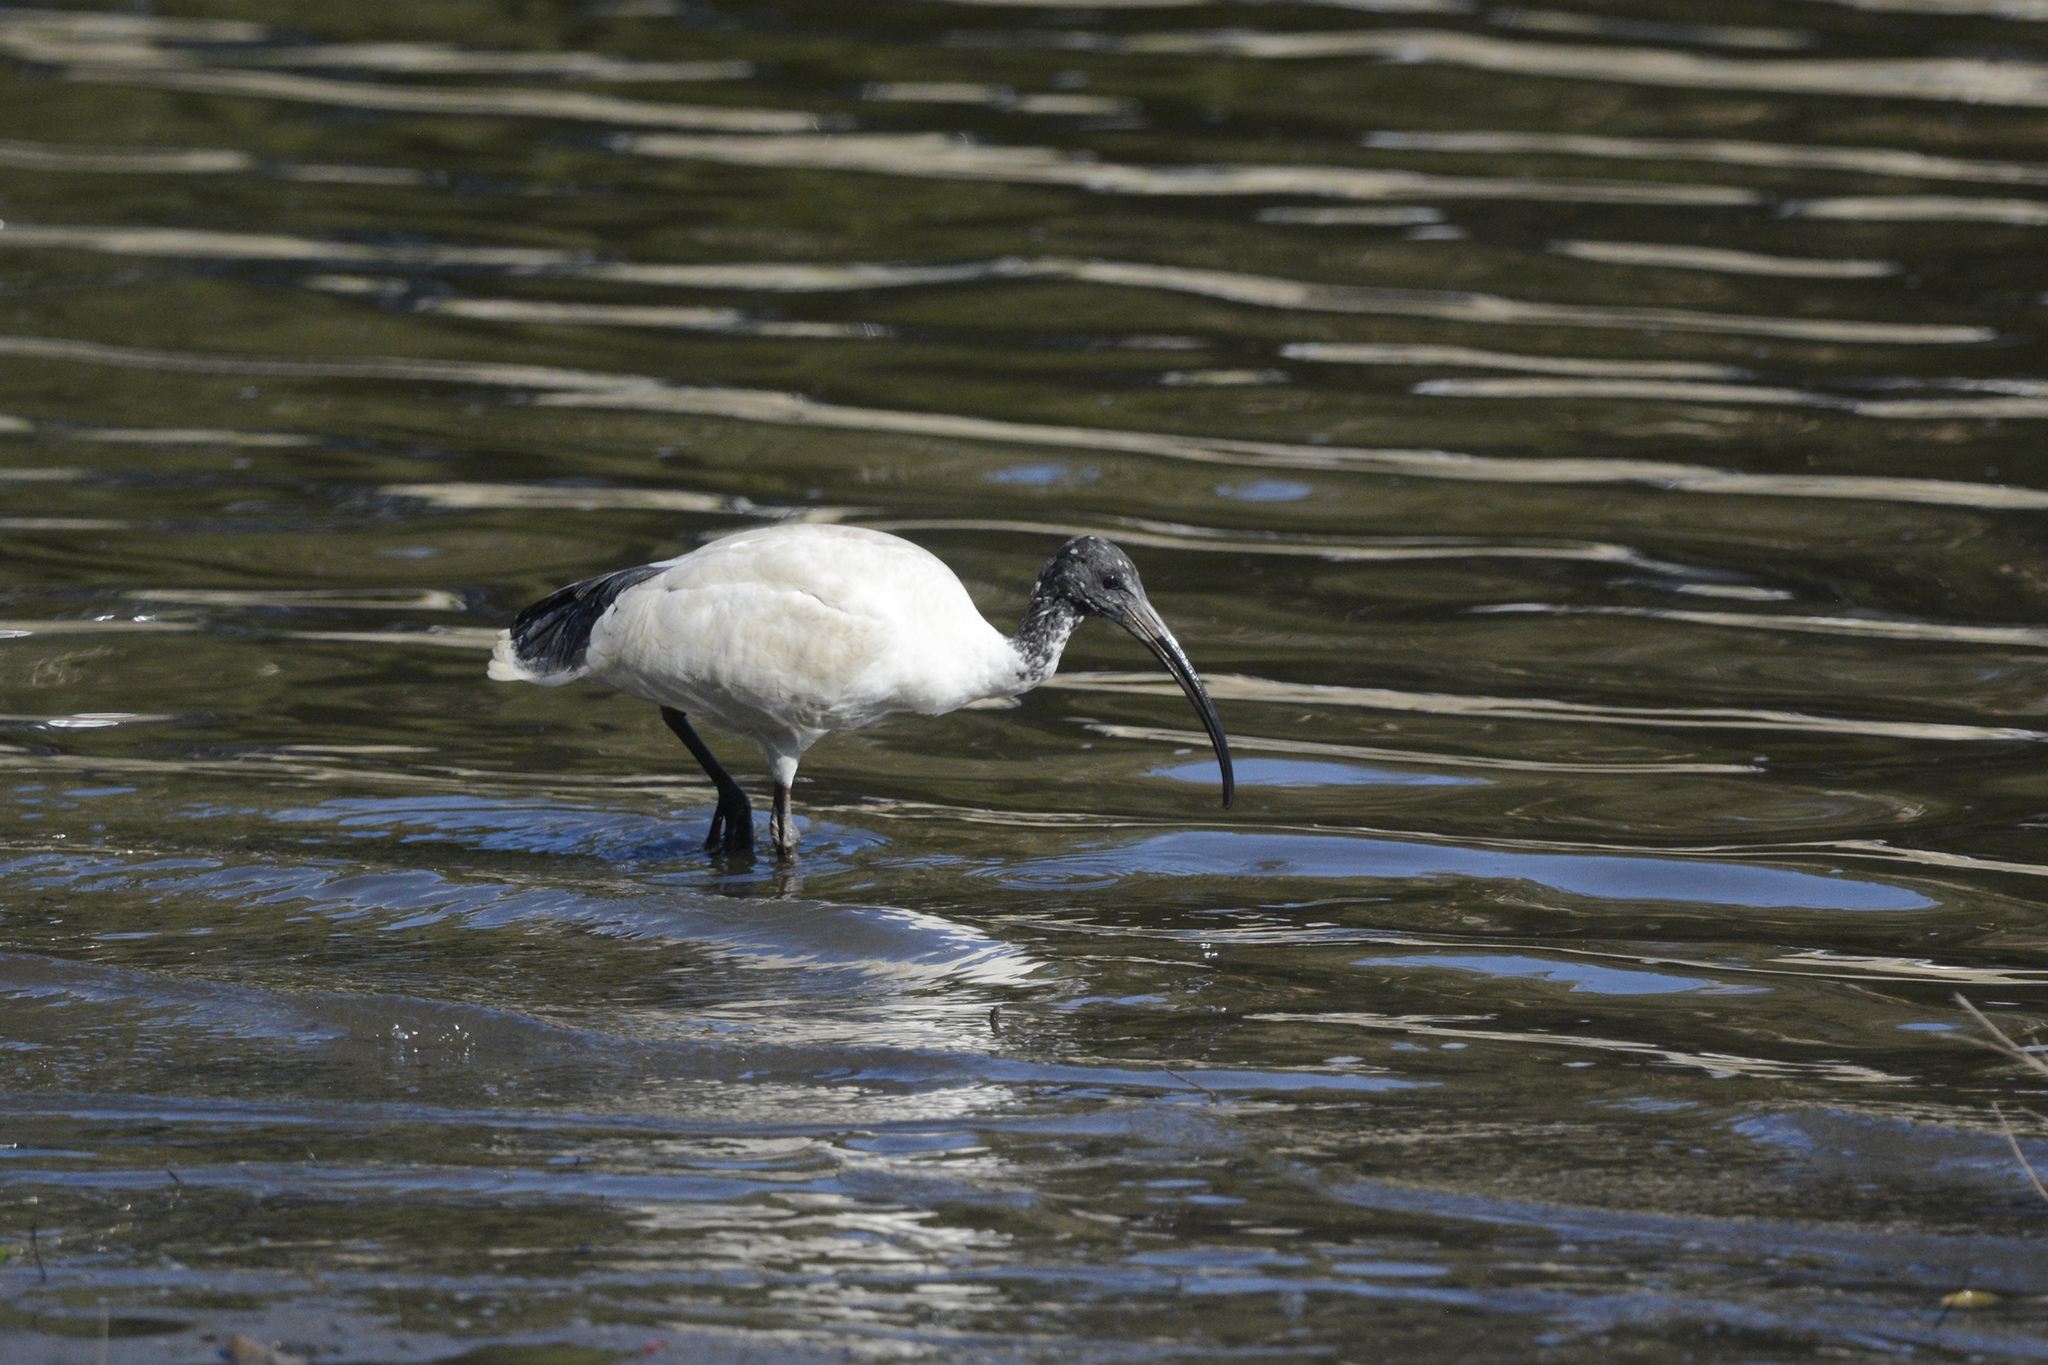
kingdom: Animalia
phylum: Chordata
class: Aves
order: Pelecaniformes
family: Threskiornithidae
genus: Threskiornis
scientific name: Threskiornis molucca
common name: Australian white ibis
